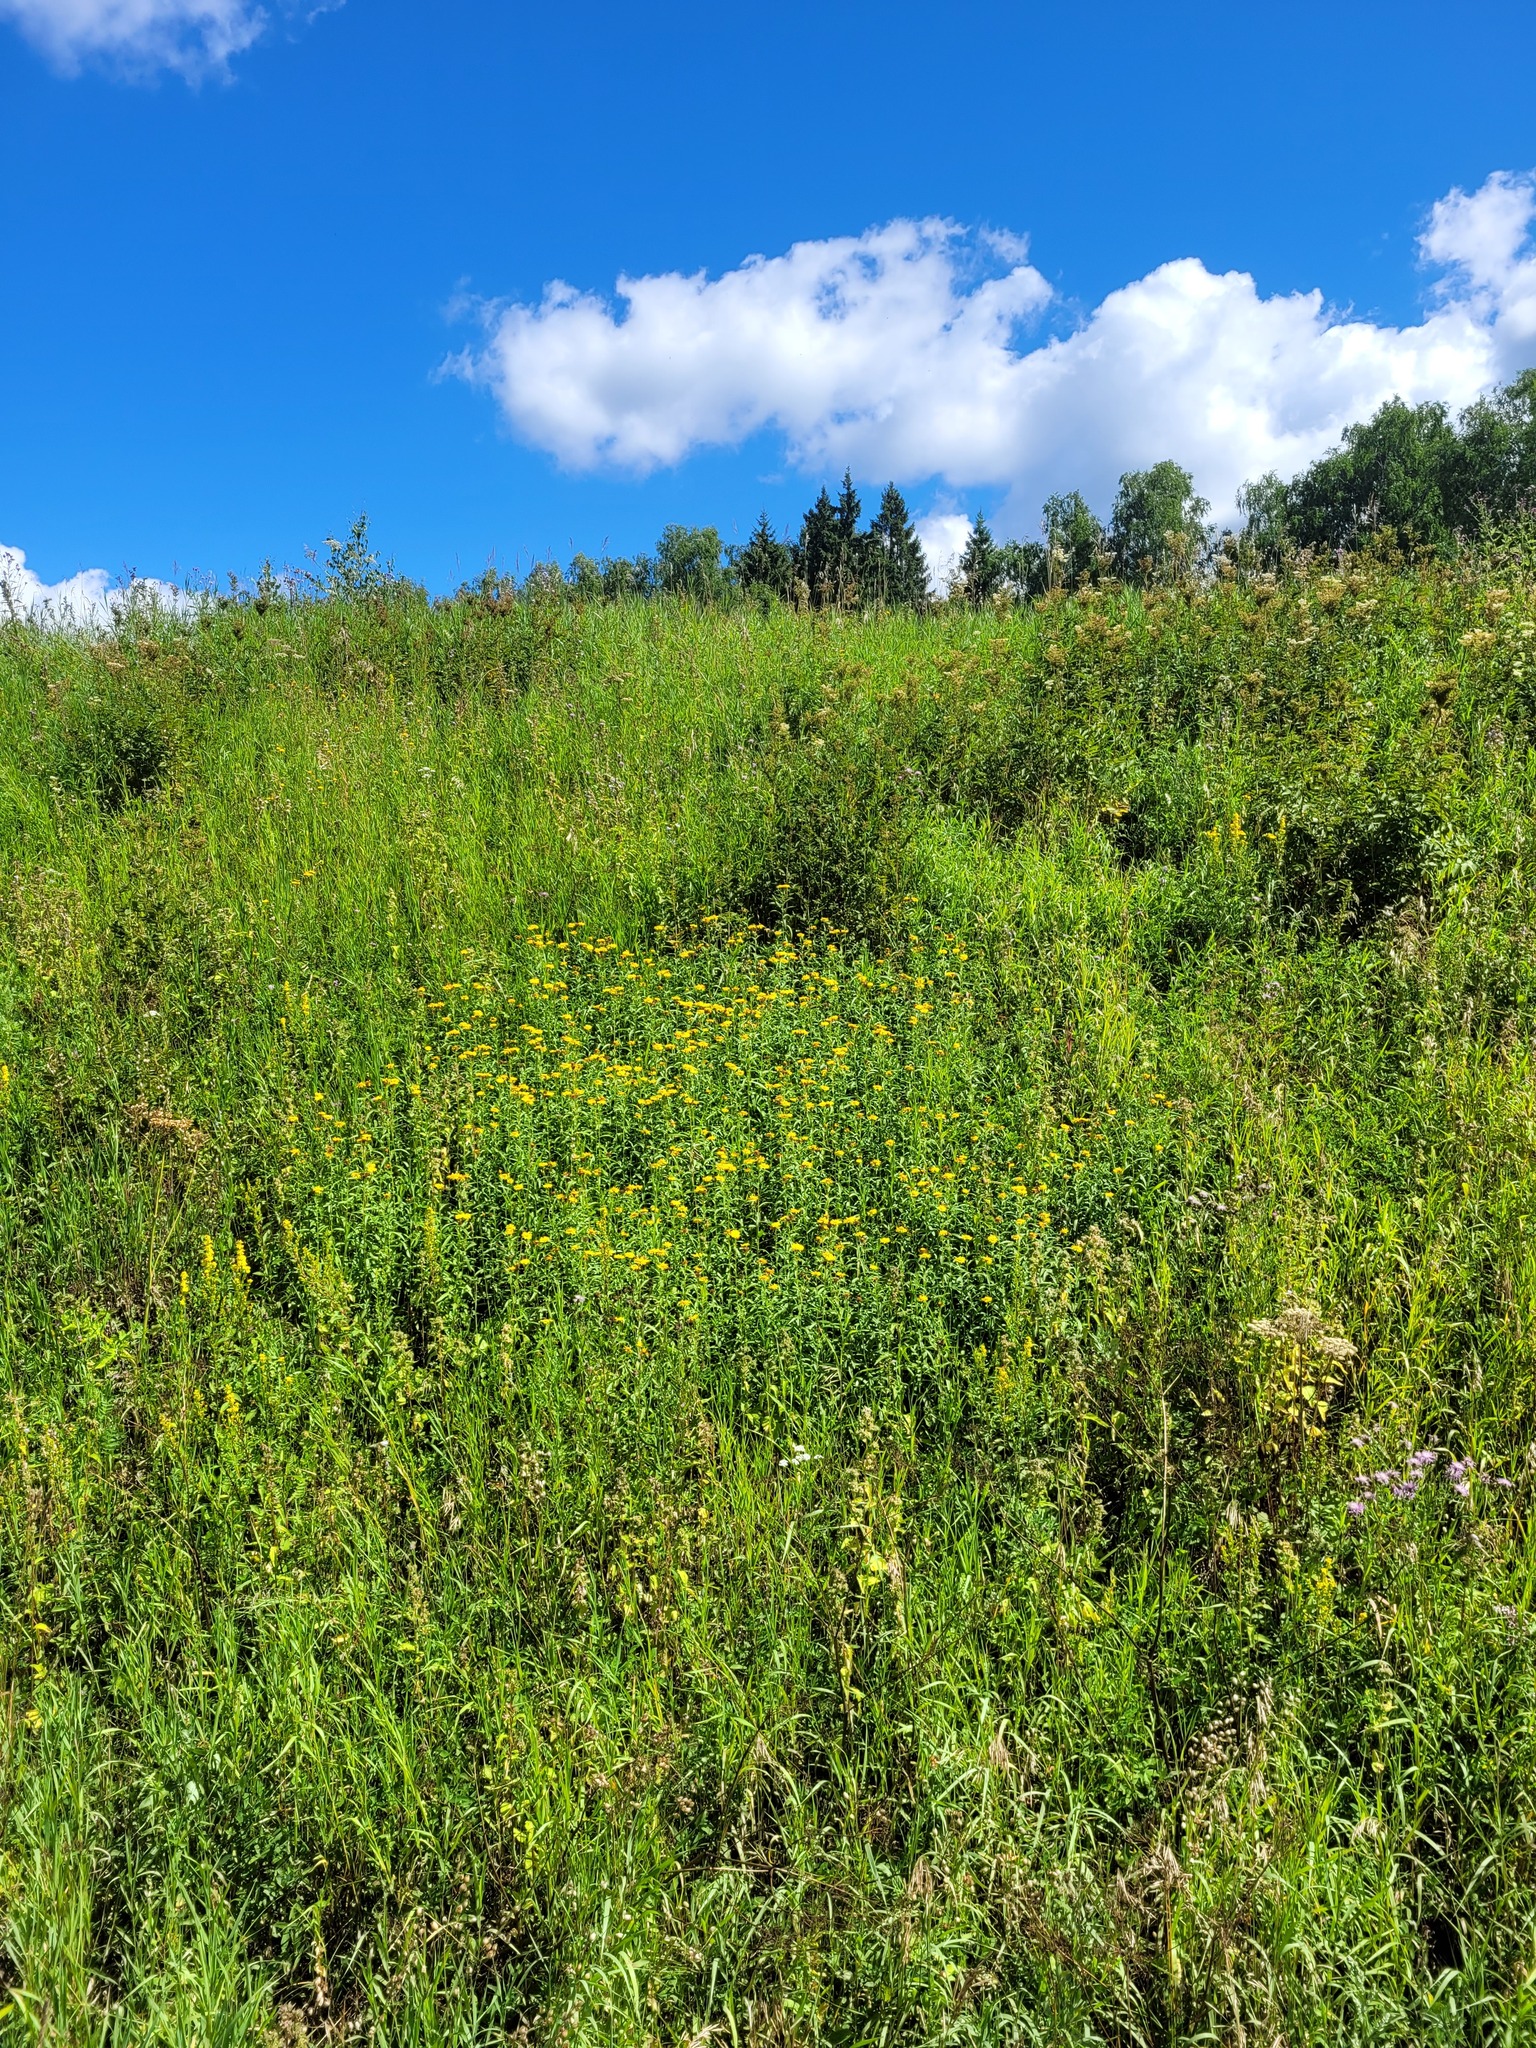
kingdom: Plantae
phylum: Tracheophyta
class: Magnoliopsida
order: Asterales
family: Asteraceae
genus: Pentanema
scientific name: Pentanema salicinum
